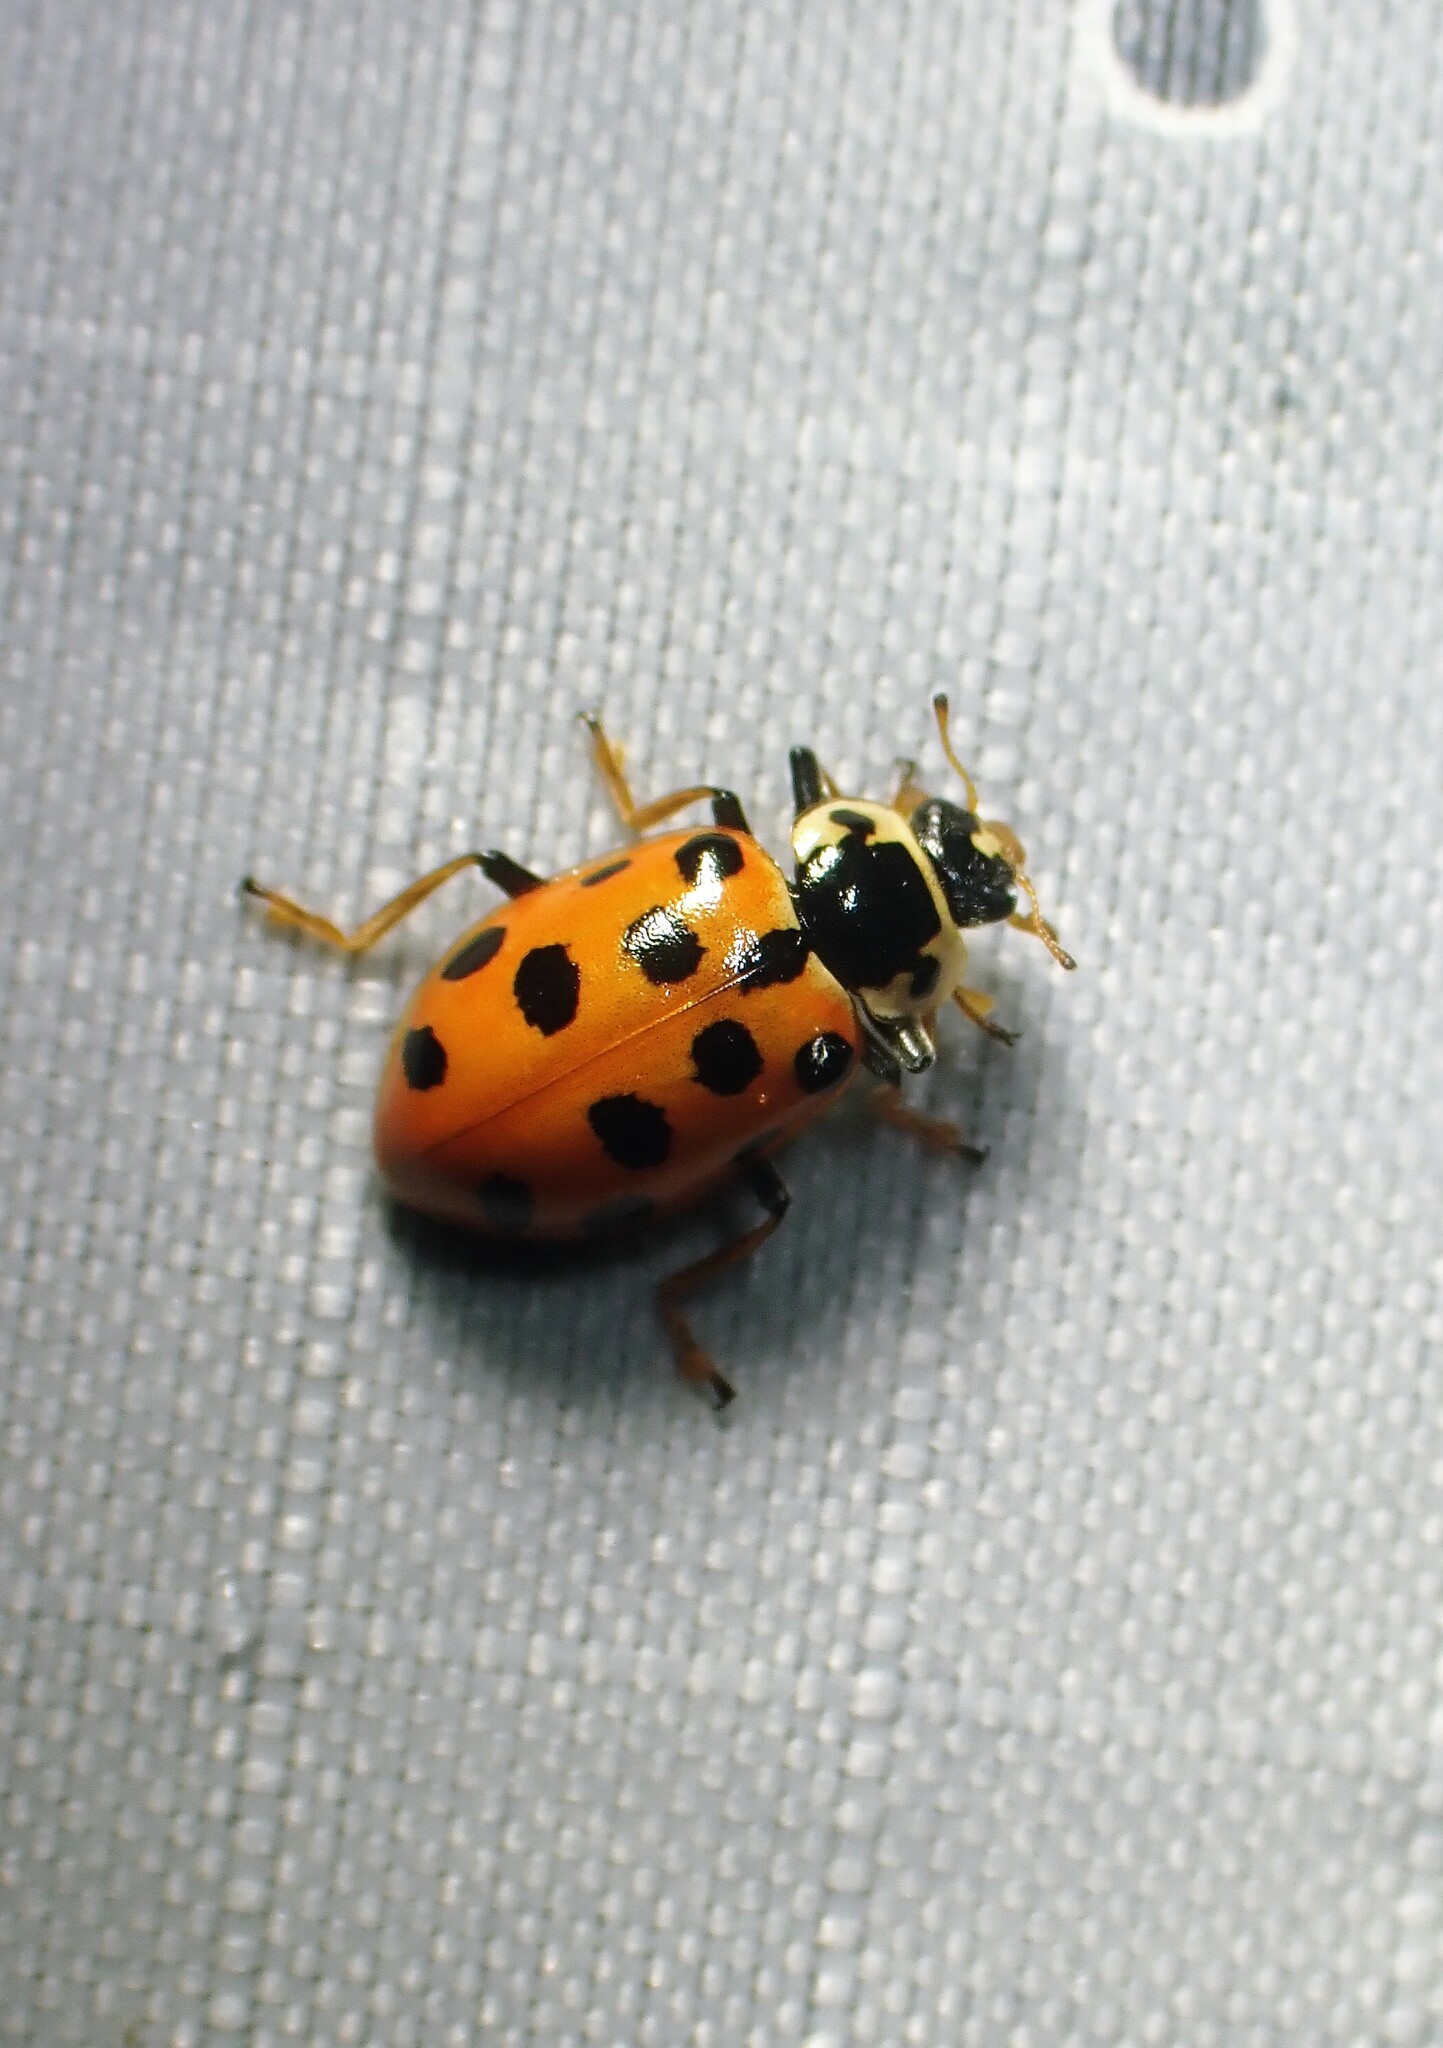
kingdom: Animalia
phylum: Arthropoda
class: Insecta
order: Coleoptera
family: Coccinellidae
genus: Hippodamia
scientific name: Hippodamia tredecimpunctata
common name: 13-spot ladybird
